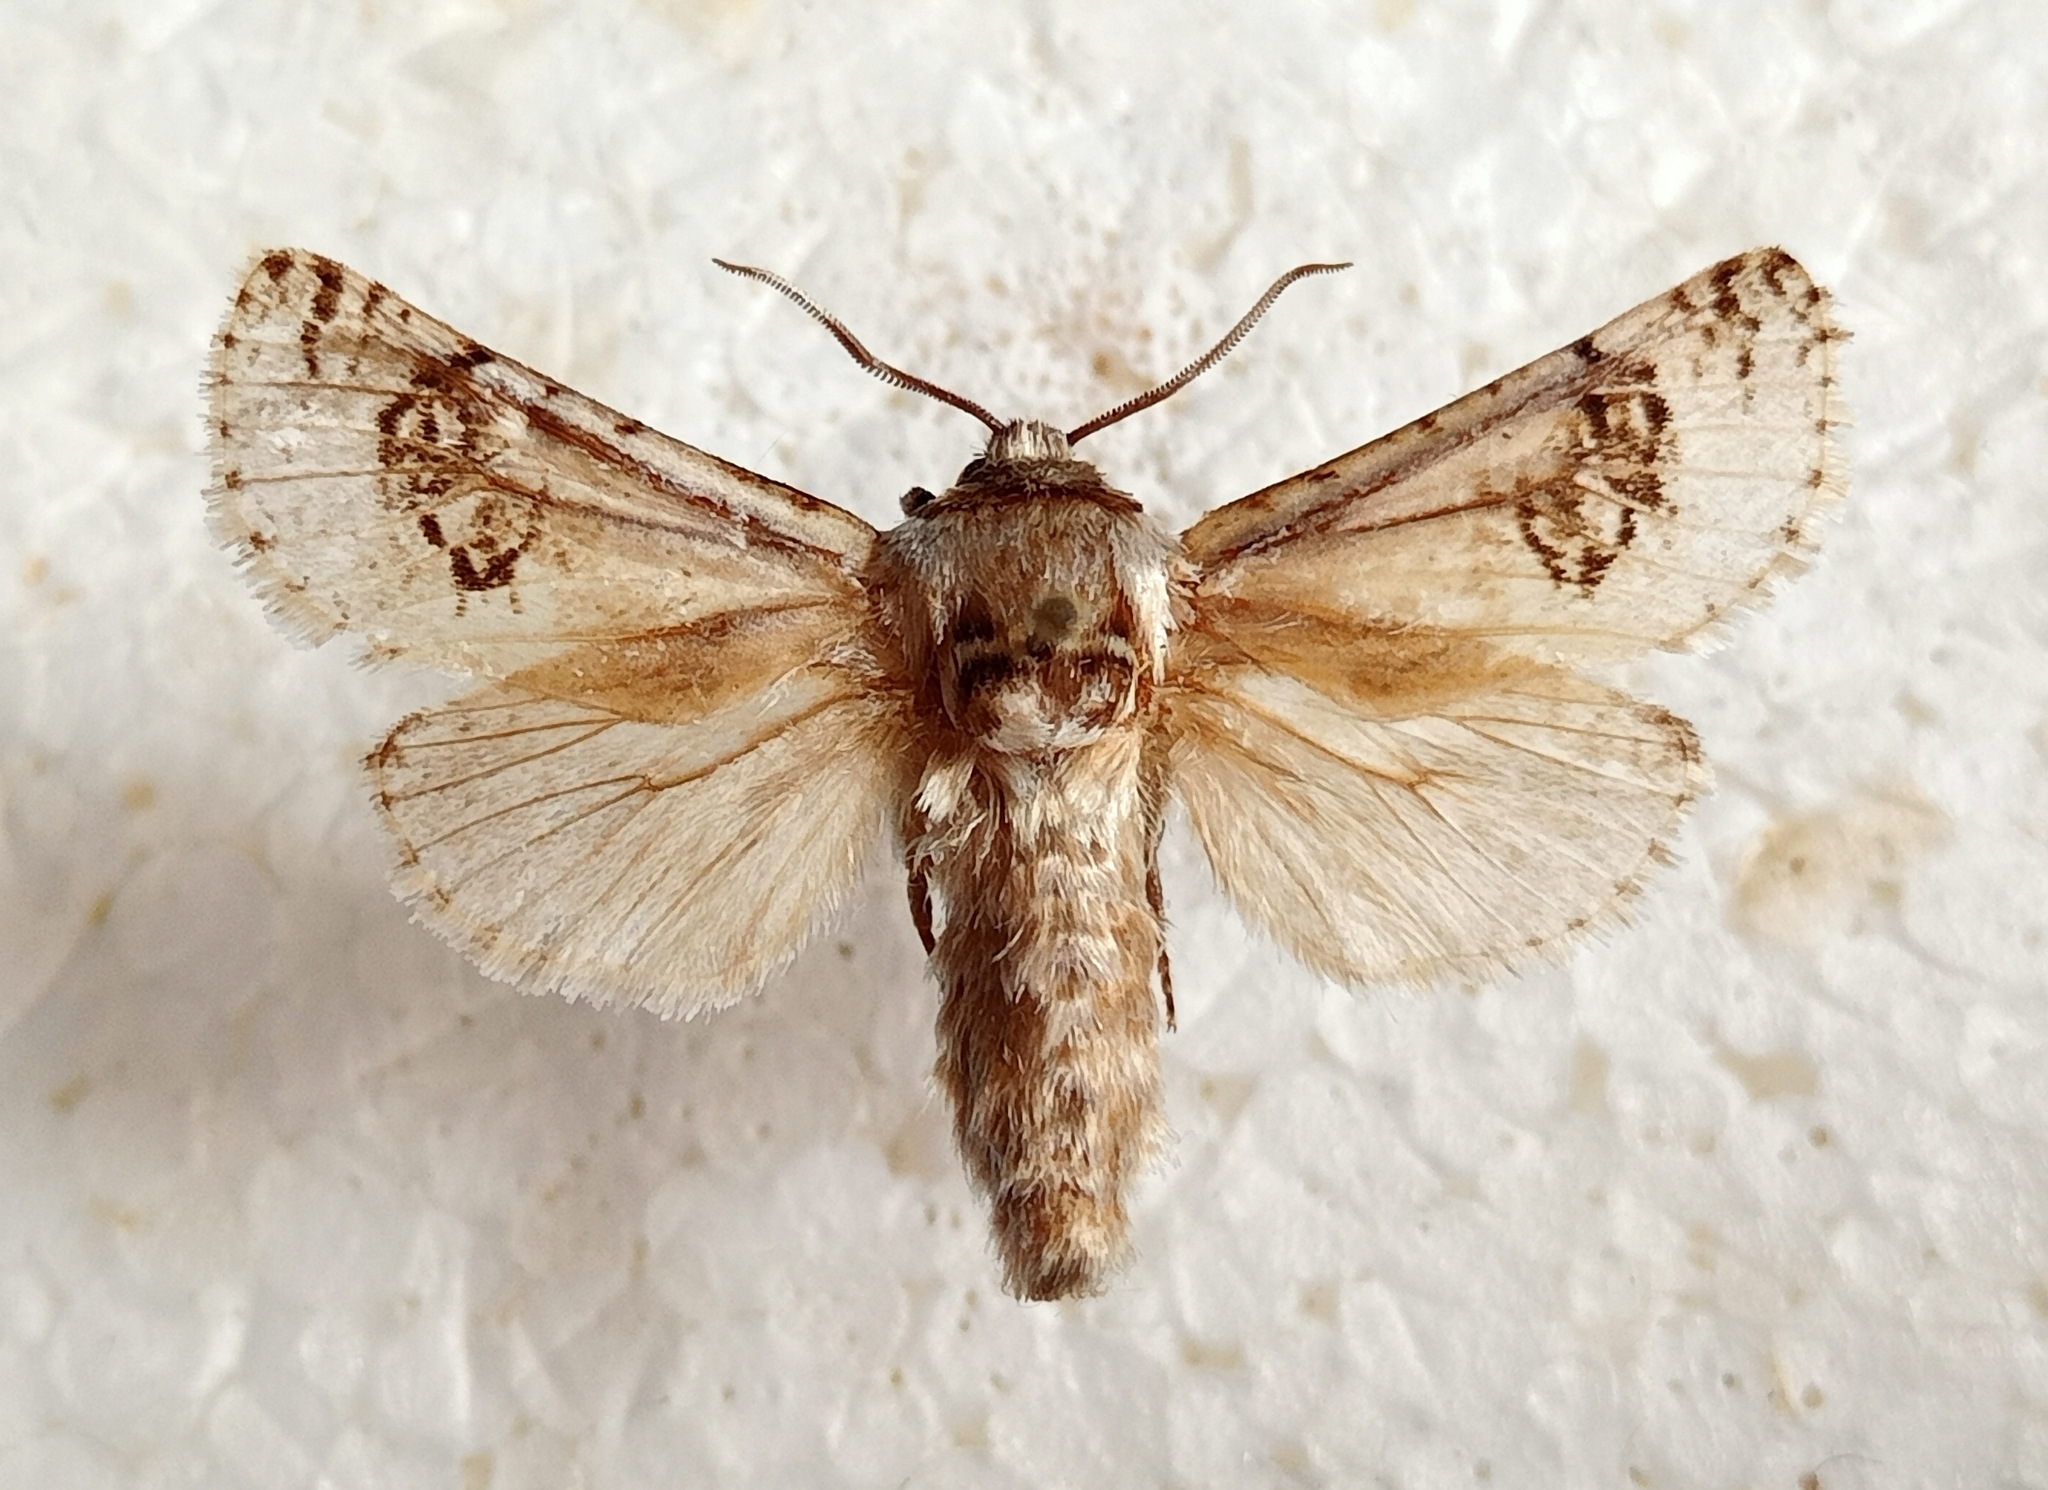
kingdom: Animalia
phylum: Arthropoda
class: Insecta
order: Lepidoptera
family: Cossidae
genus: Parahypopta
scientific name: Parahypopta caestrum
